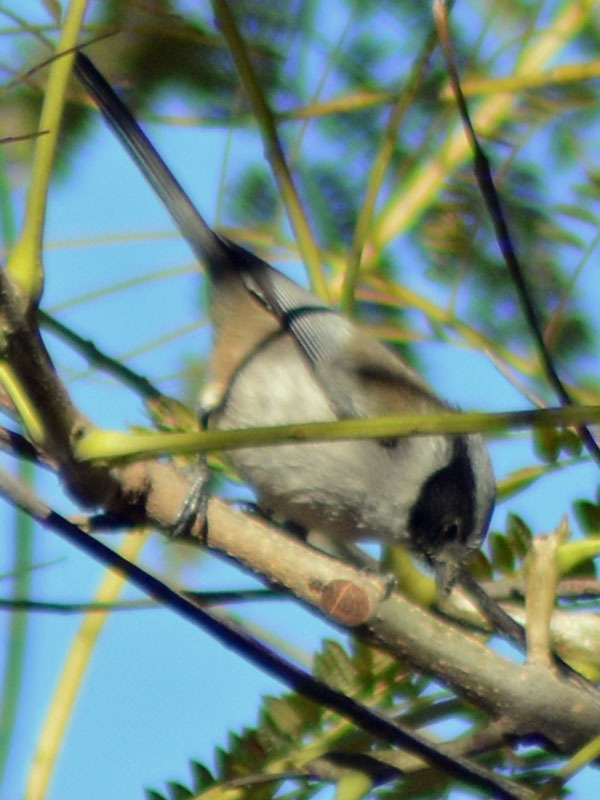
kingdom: Animalia
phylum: Chordata
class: Aves
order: Passeriformes
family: Aegithalidae
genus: Psaltriparus
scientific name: Psaltriparus minimus
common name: American bushtit
